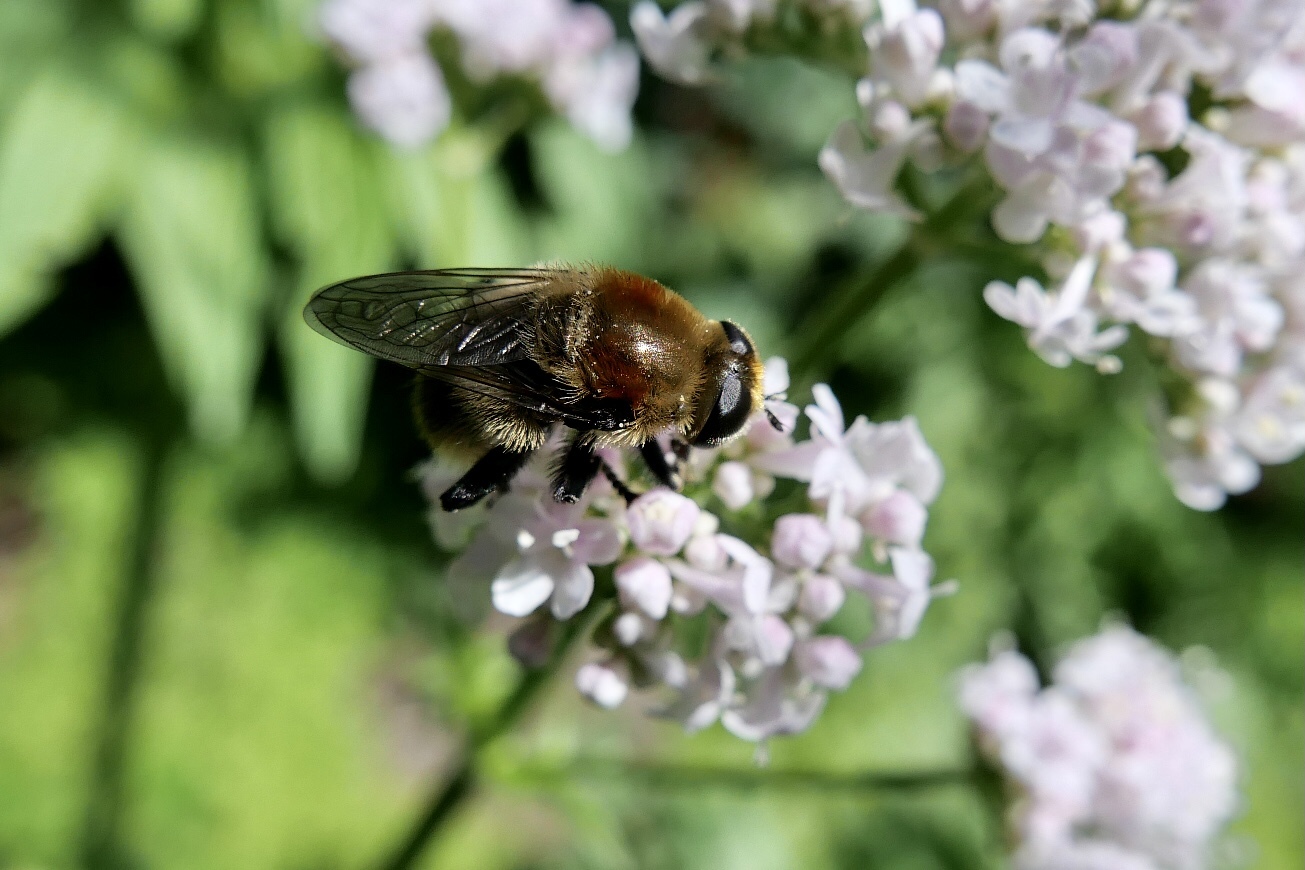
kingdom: Animalia
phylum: Arthropoda
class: Insecta
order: Diptera
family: Syrphidae
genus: Merodon
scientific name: Merodon equestris
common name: Greater bulb-fly
